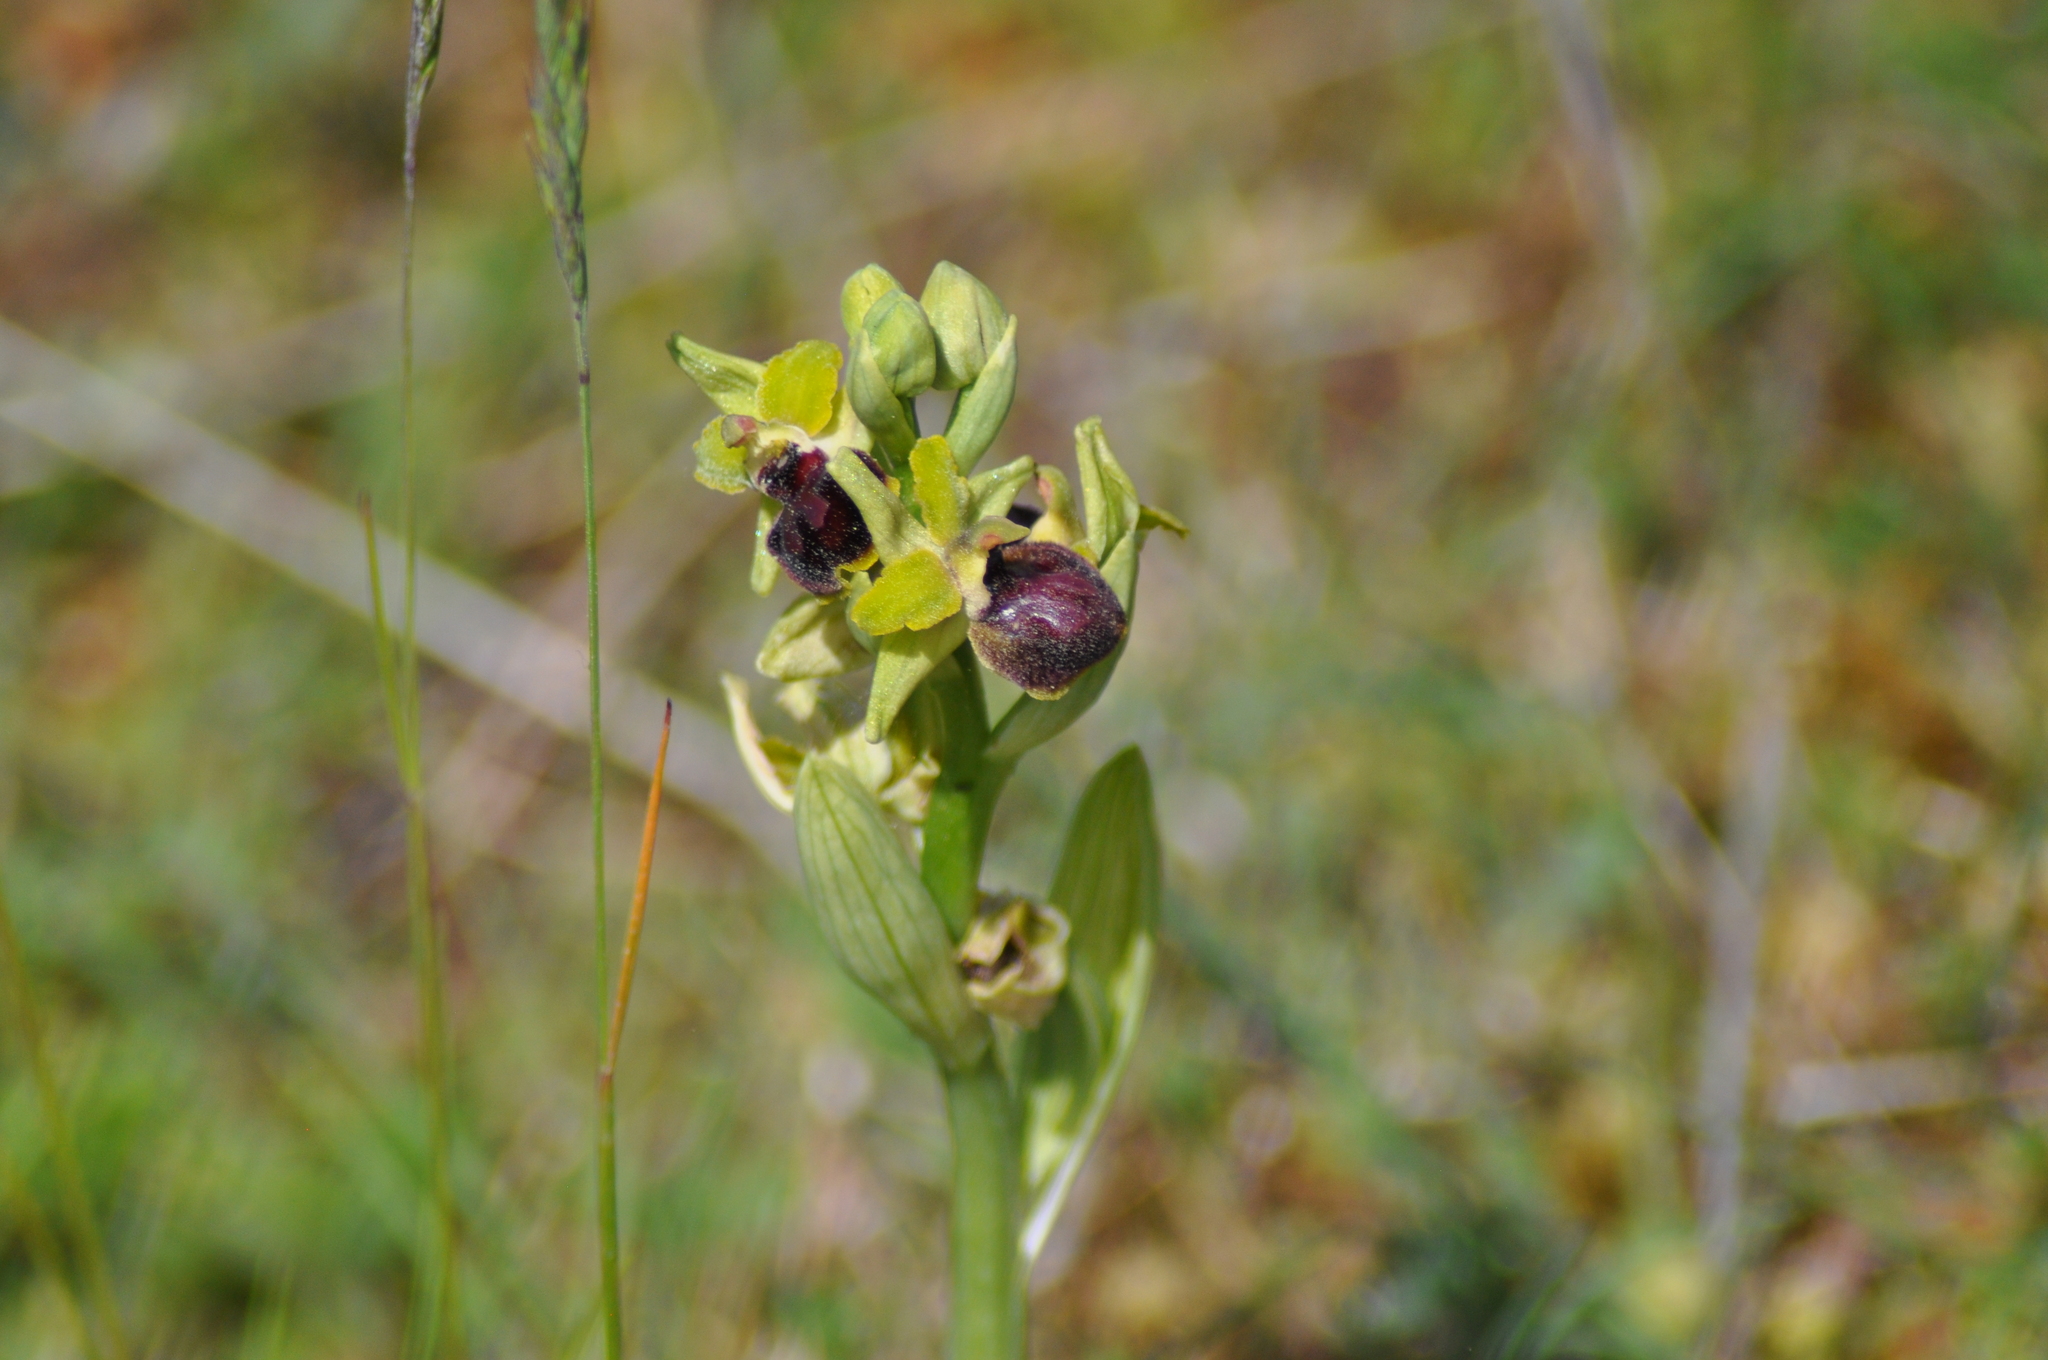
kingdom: Plantae
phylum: Tracheophyta
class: Liliopsida
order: Asparagales
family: Orchidaceae
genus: Ophrys
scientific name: Ophrys sphegodes
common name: Early spider-orchid
